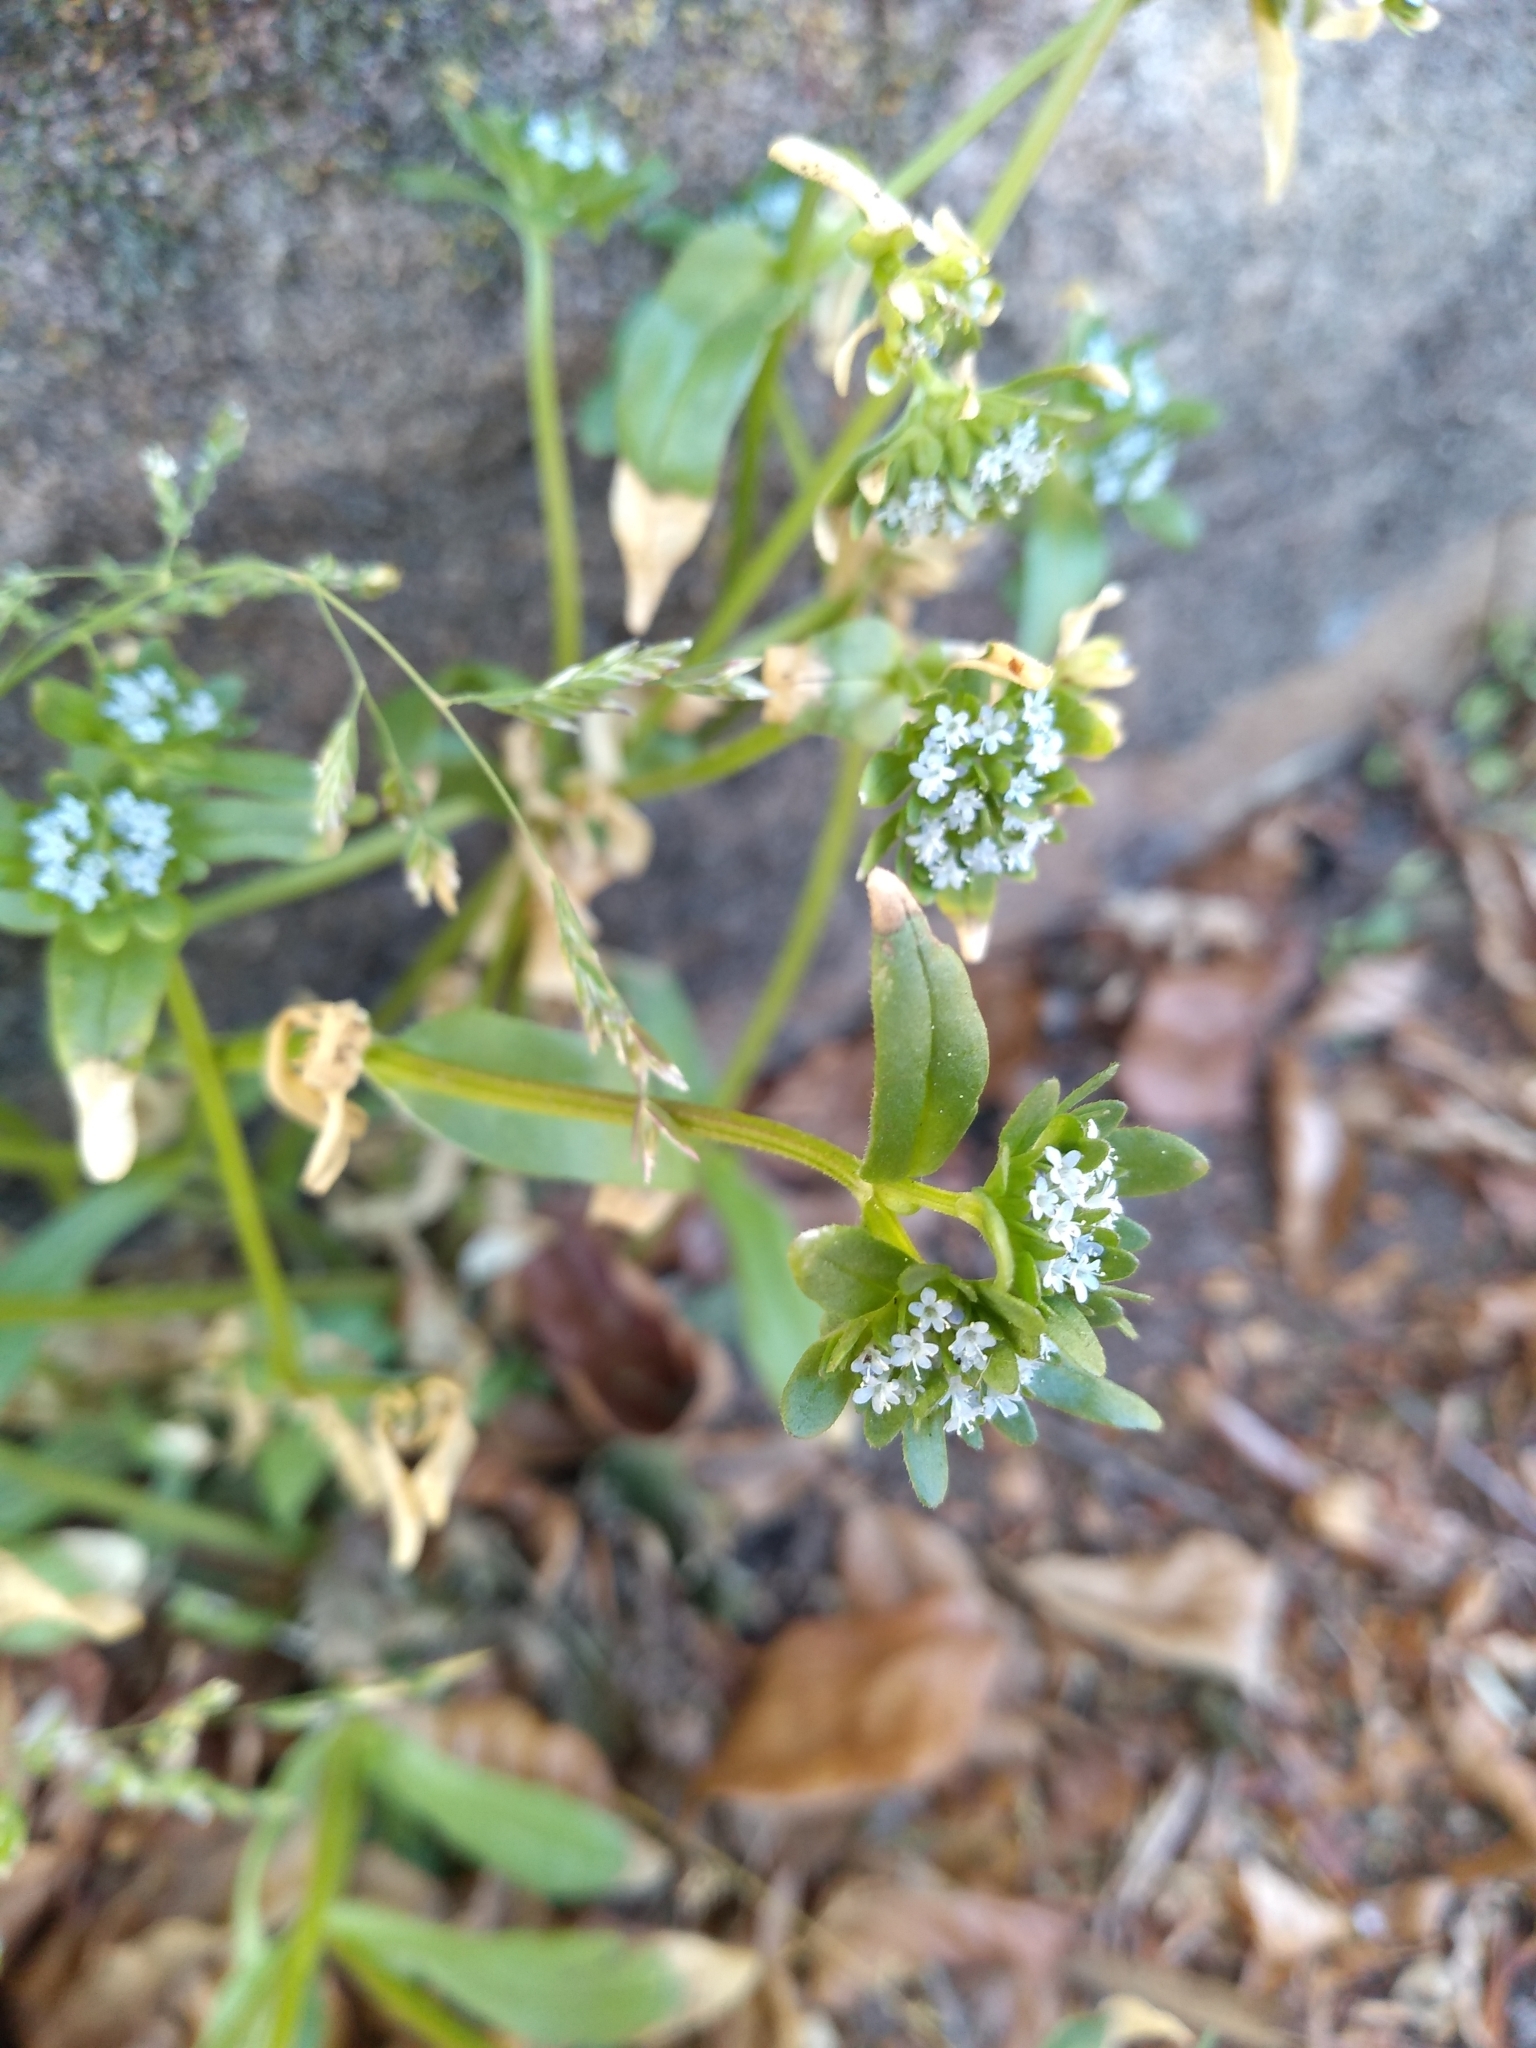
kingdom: Plantae
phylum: Tracheophyta
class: Magnoliopsida
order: Dipsacales
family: Caprifoliaceae
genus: Valerianella
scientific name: Valerianella locusta
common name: Common cornsalad
